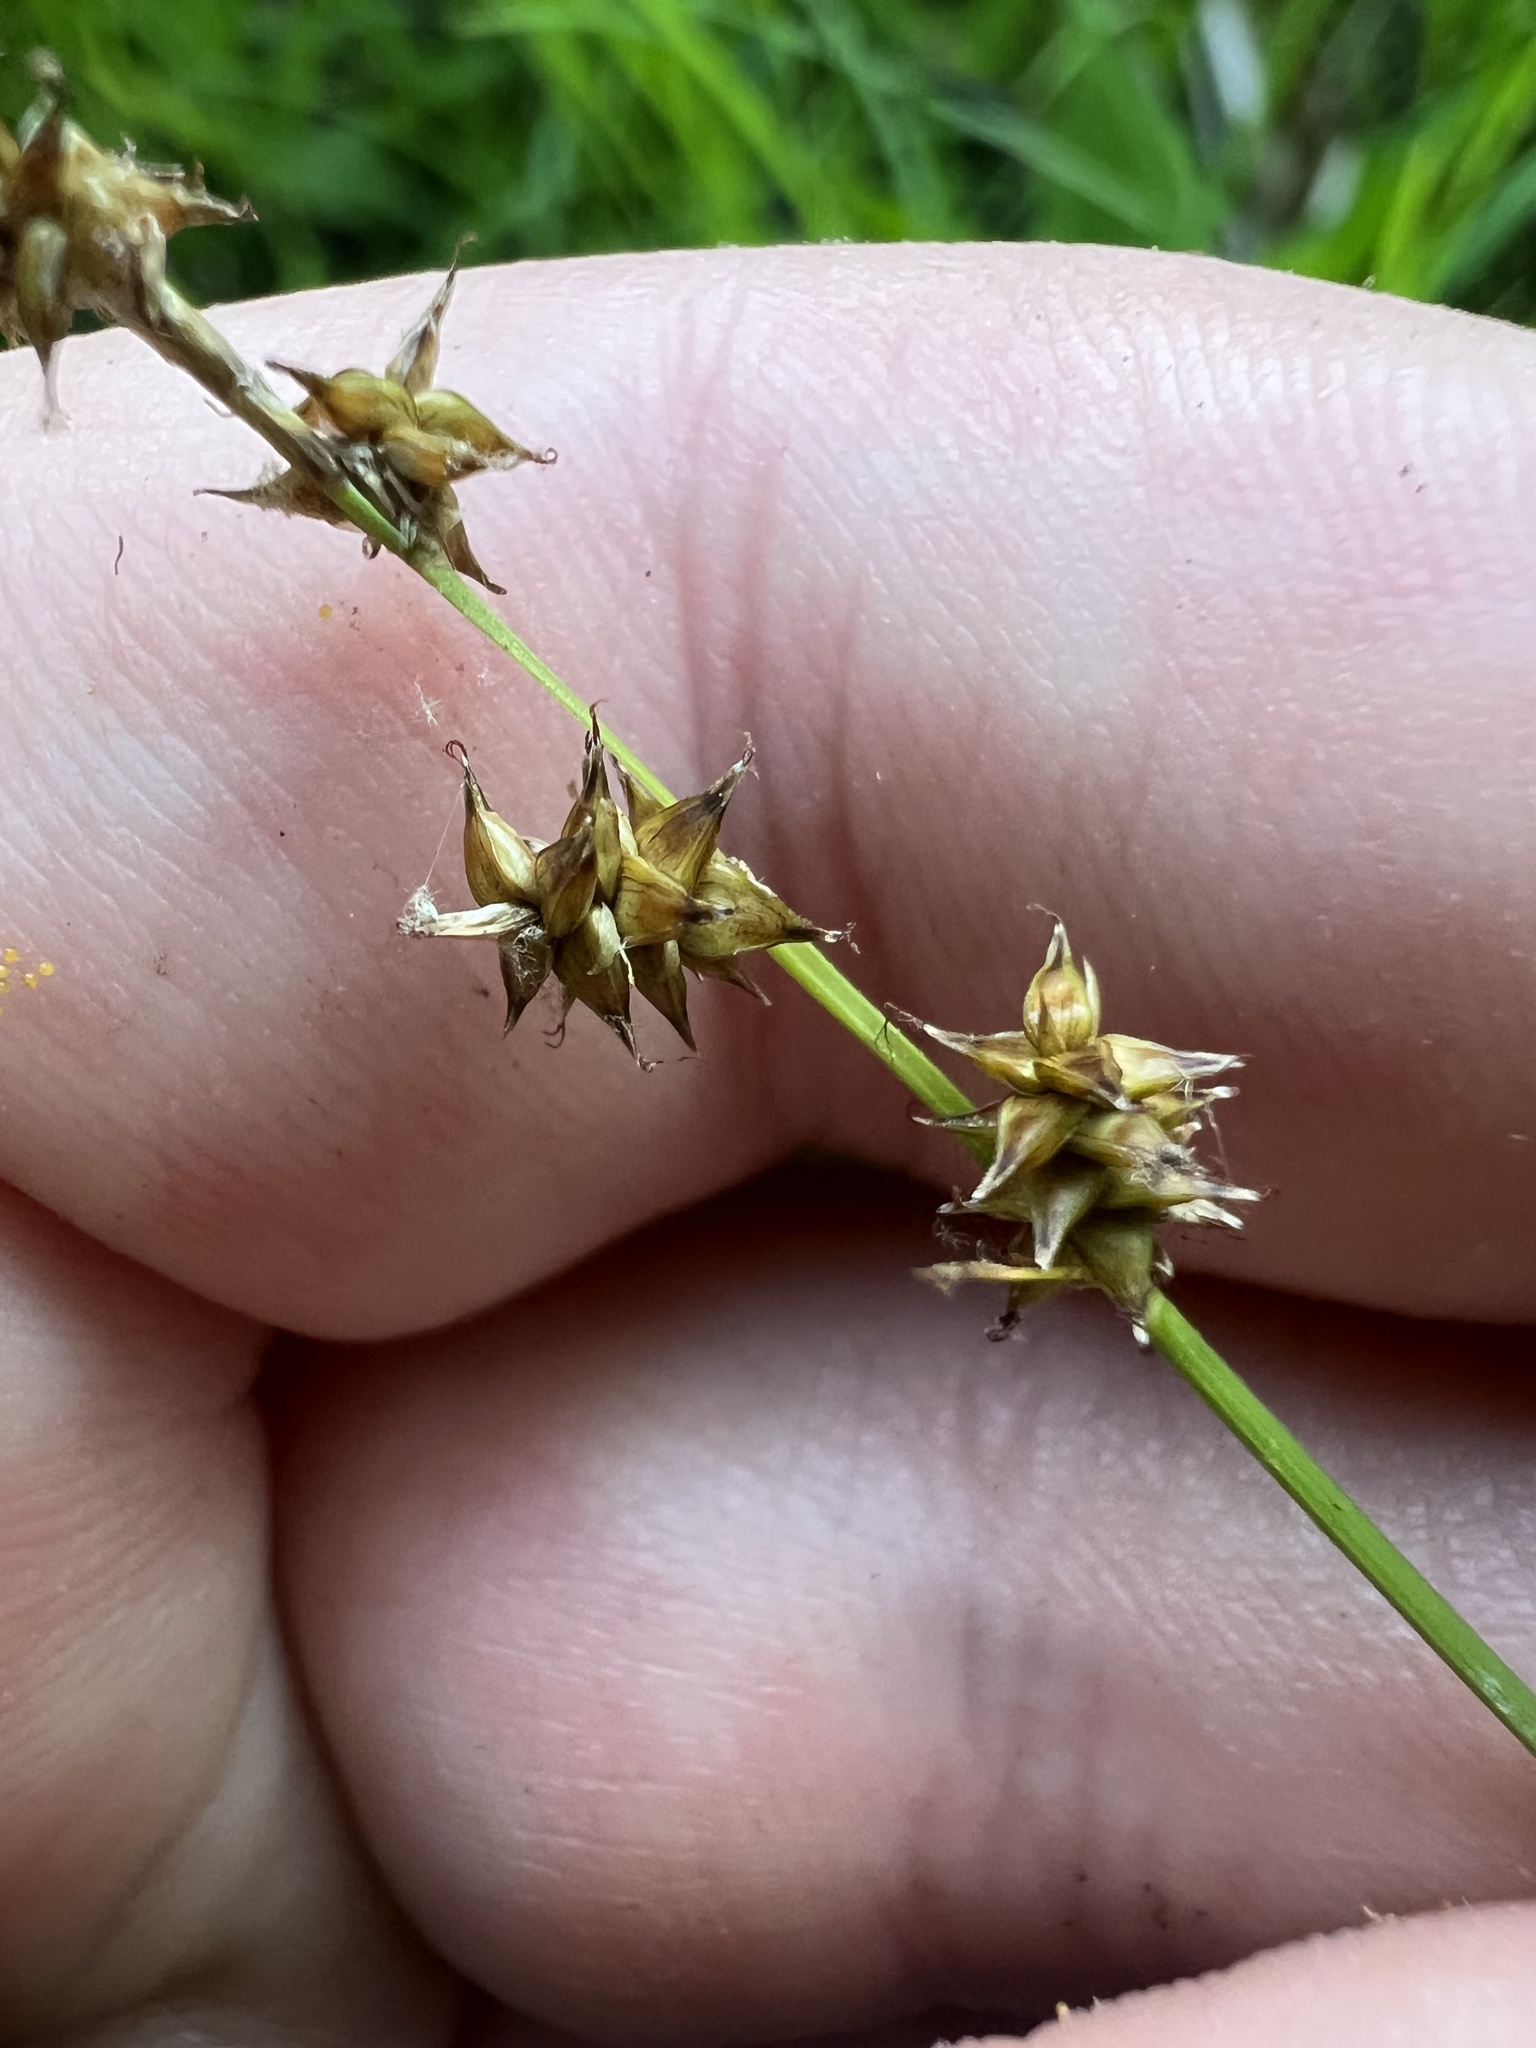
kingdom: Plantae
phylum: Tracheophyta
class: Liliopsida
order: Poales
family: Cyperaceae
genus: Carex
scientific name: Carex interior
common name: Inland sedge
